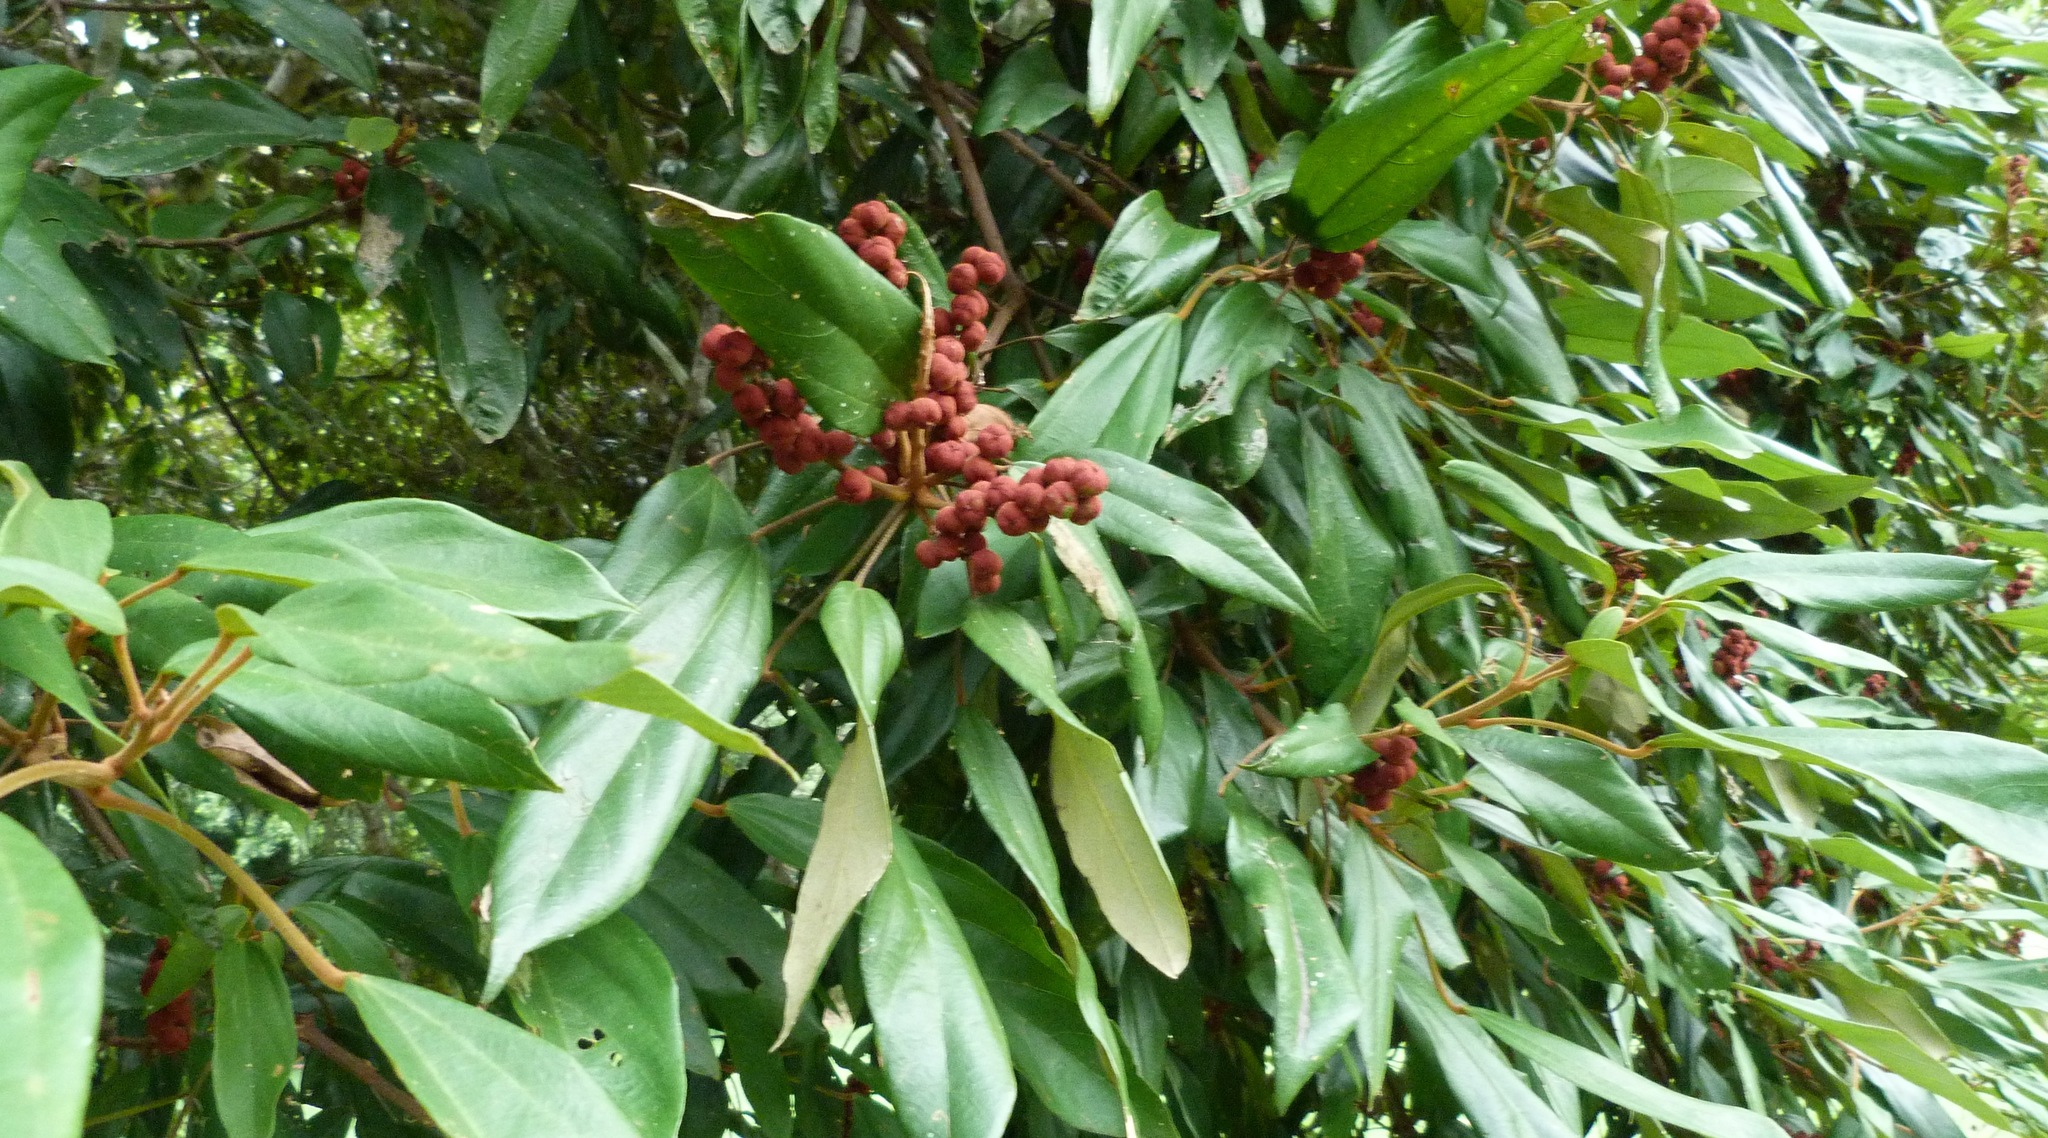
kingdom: Plantae
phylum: Tracheophyta
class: Magnoliopsida
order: Malpighiales
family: Euphorbiaceae
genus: Mallotus
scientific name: Mallotus philippensis
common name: Kamala tree
